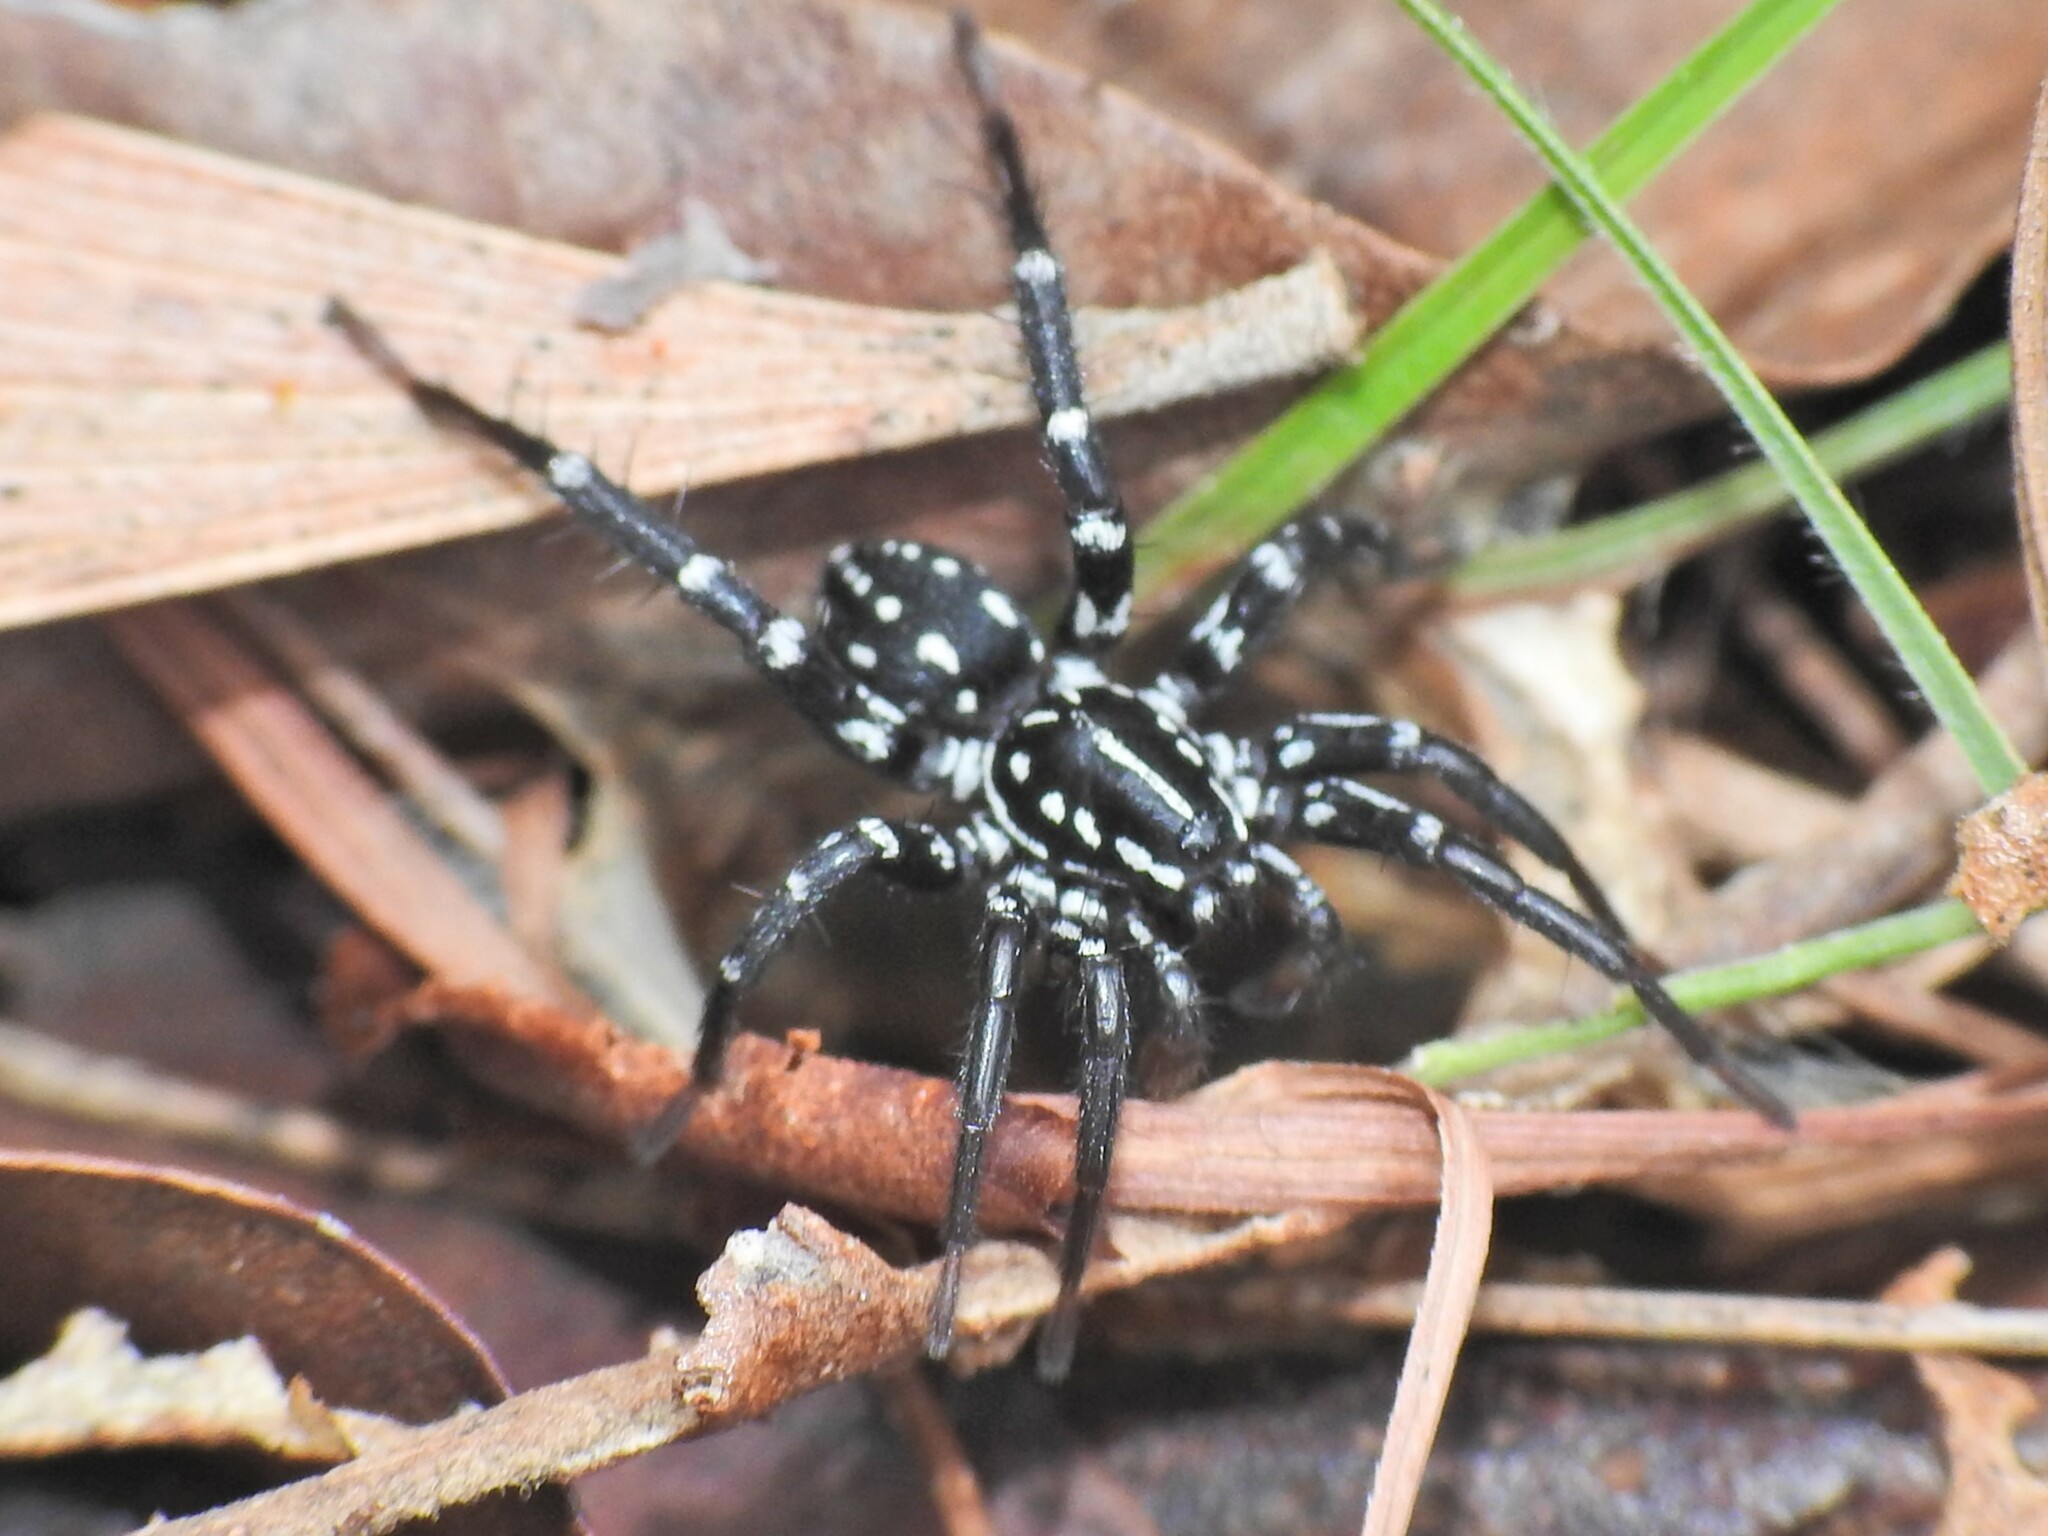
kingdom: Animalia
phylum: Arthropoda
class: Arachnida
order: Araneae
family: Corinnidae
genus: Nyssus
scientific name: Nyssus albopunctatus
